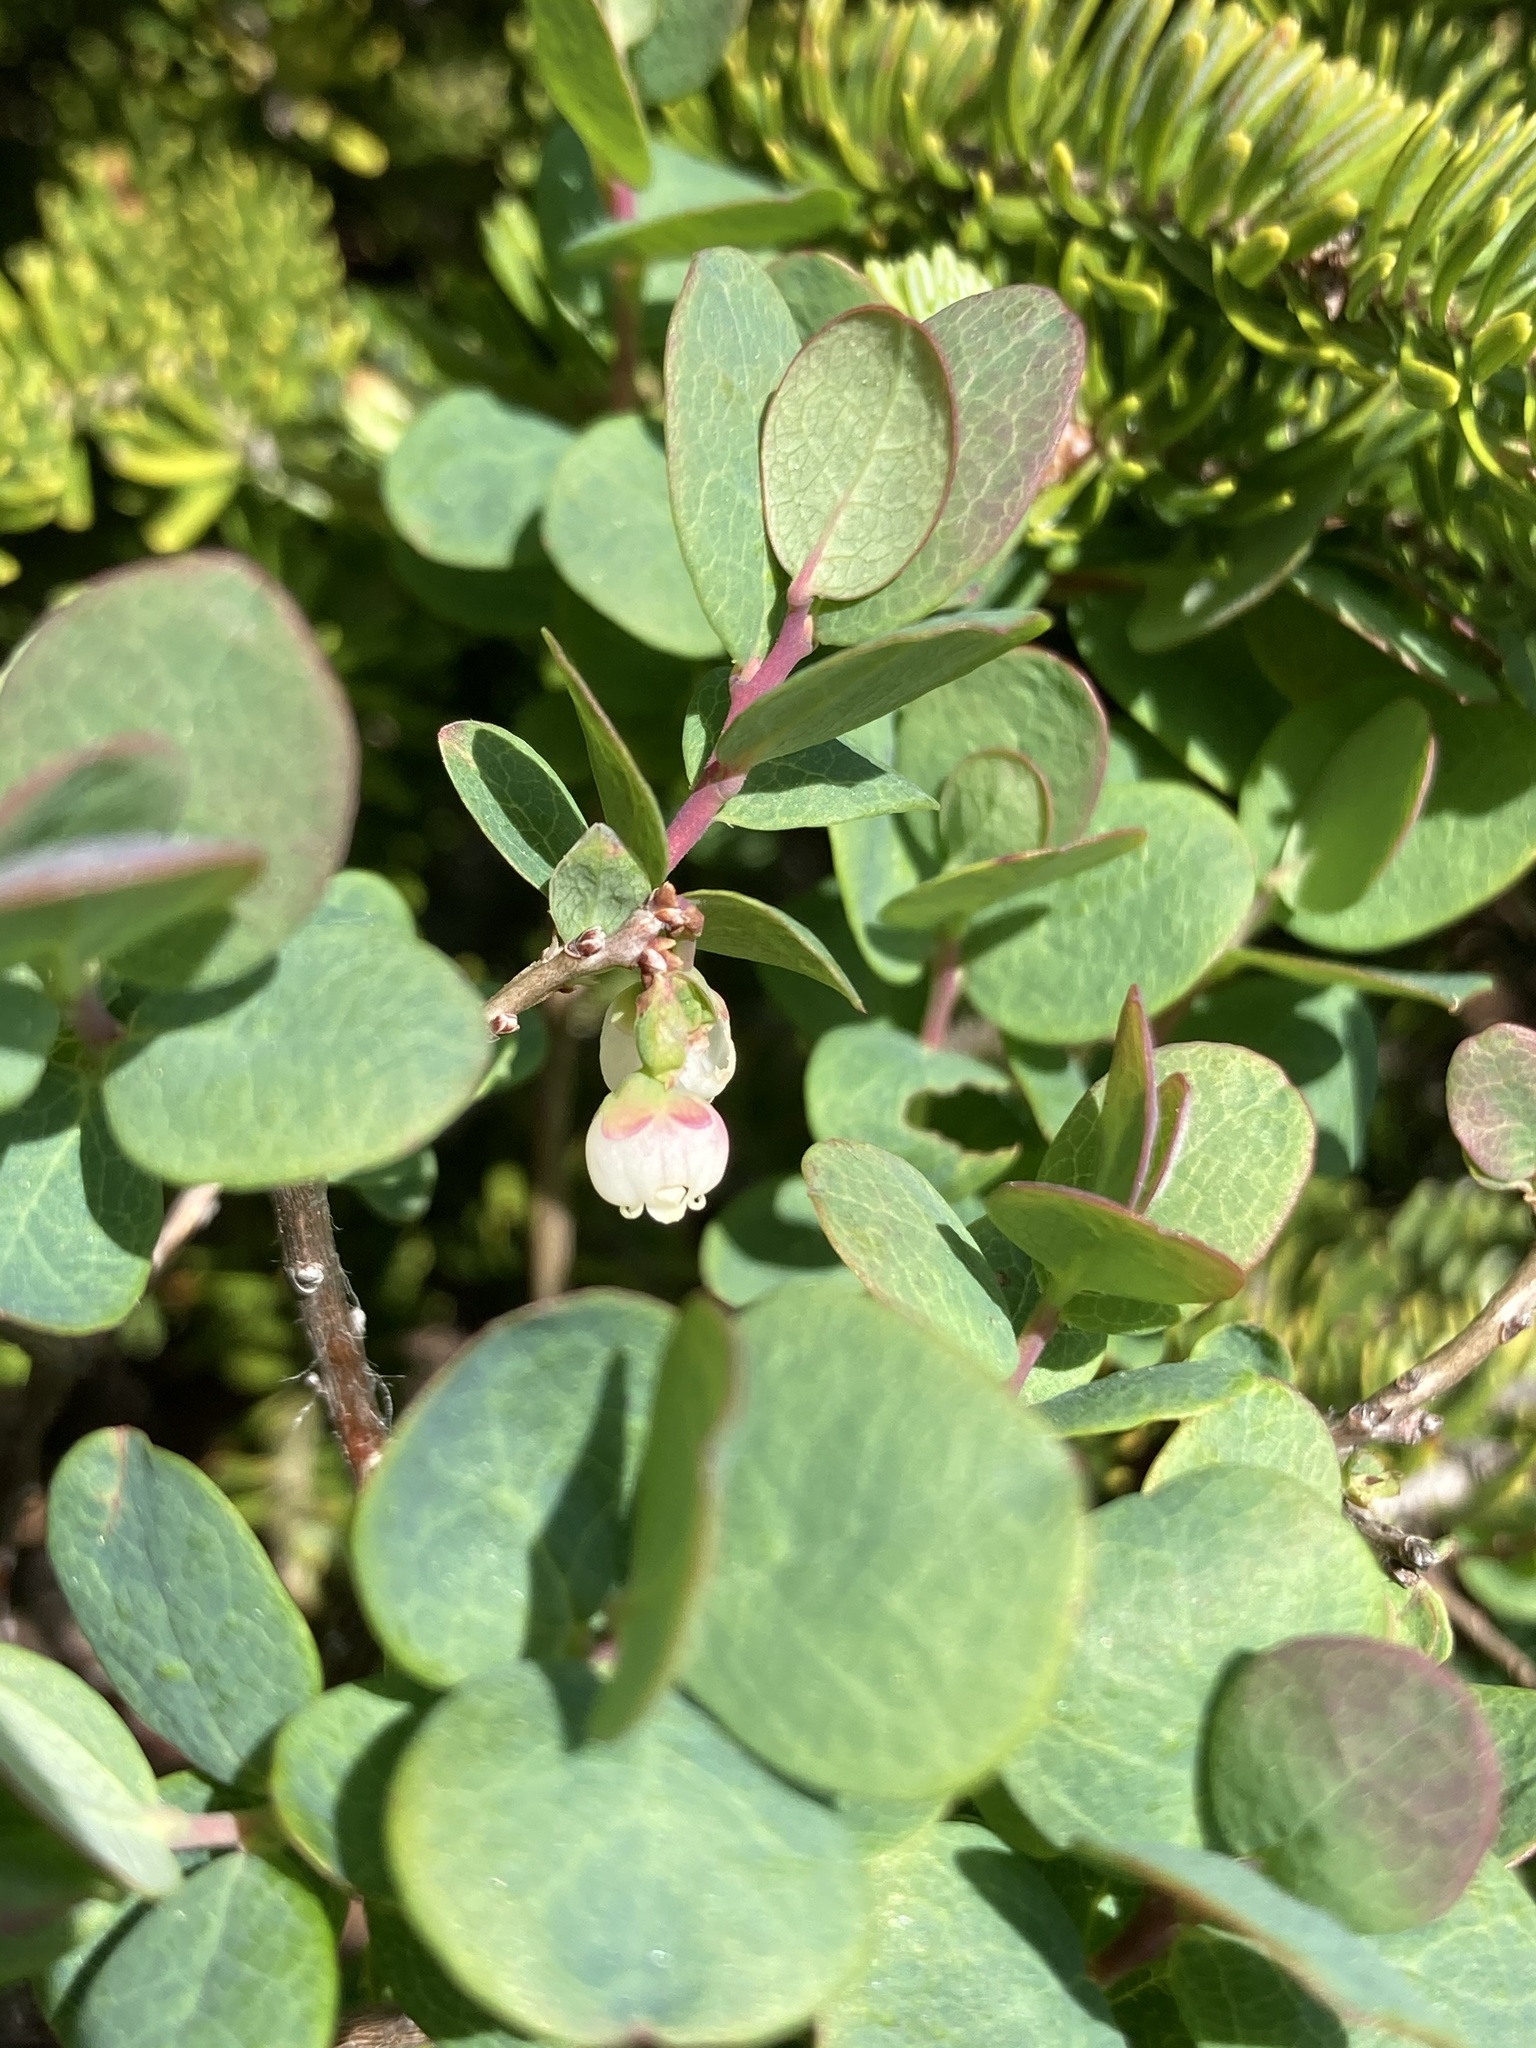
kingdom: Plantae
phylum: Tracheophyta
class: Magnoliopsida
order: Ericales
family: Ericaceae
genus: Vaccinium
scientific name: Vaccinium uliginosum
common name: Bog bilberry
